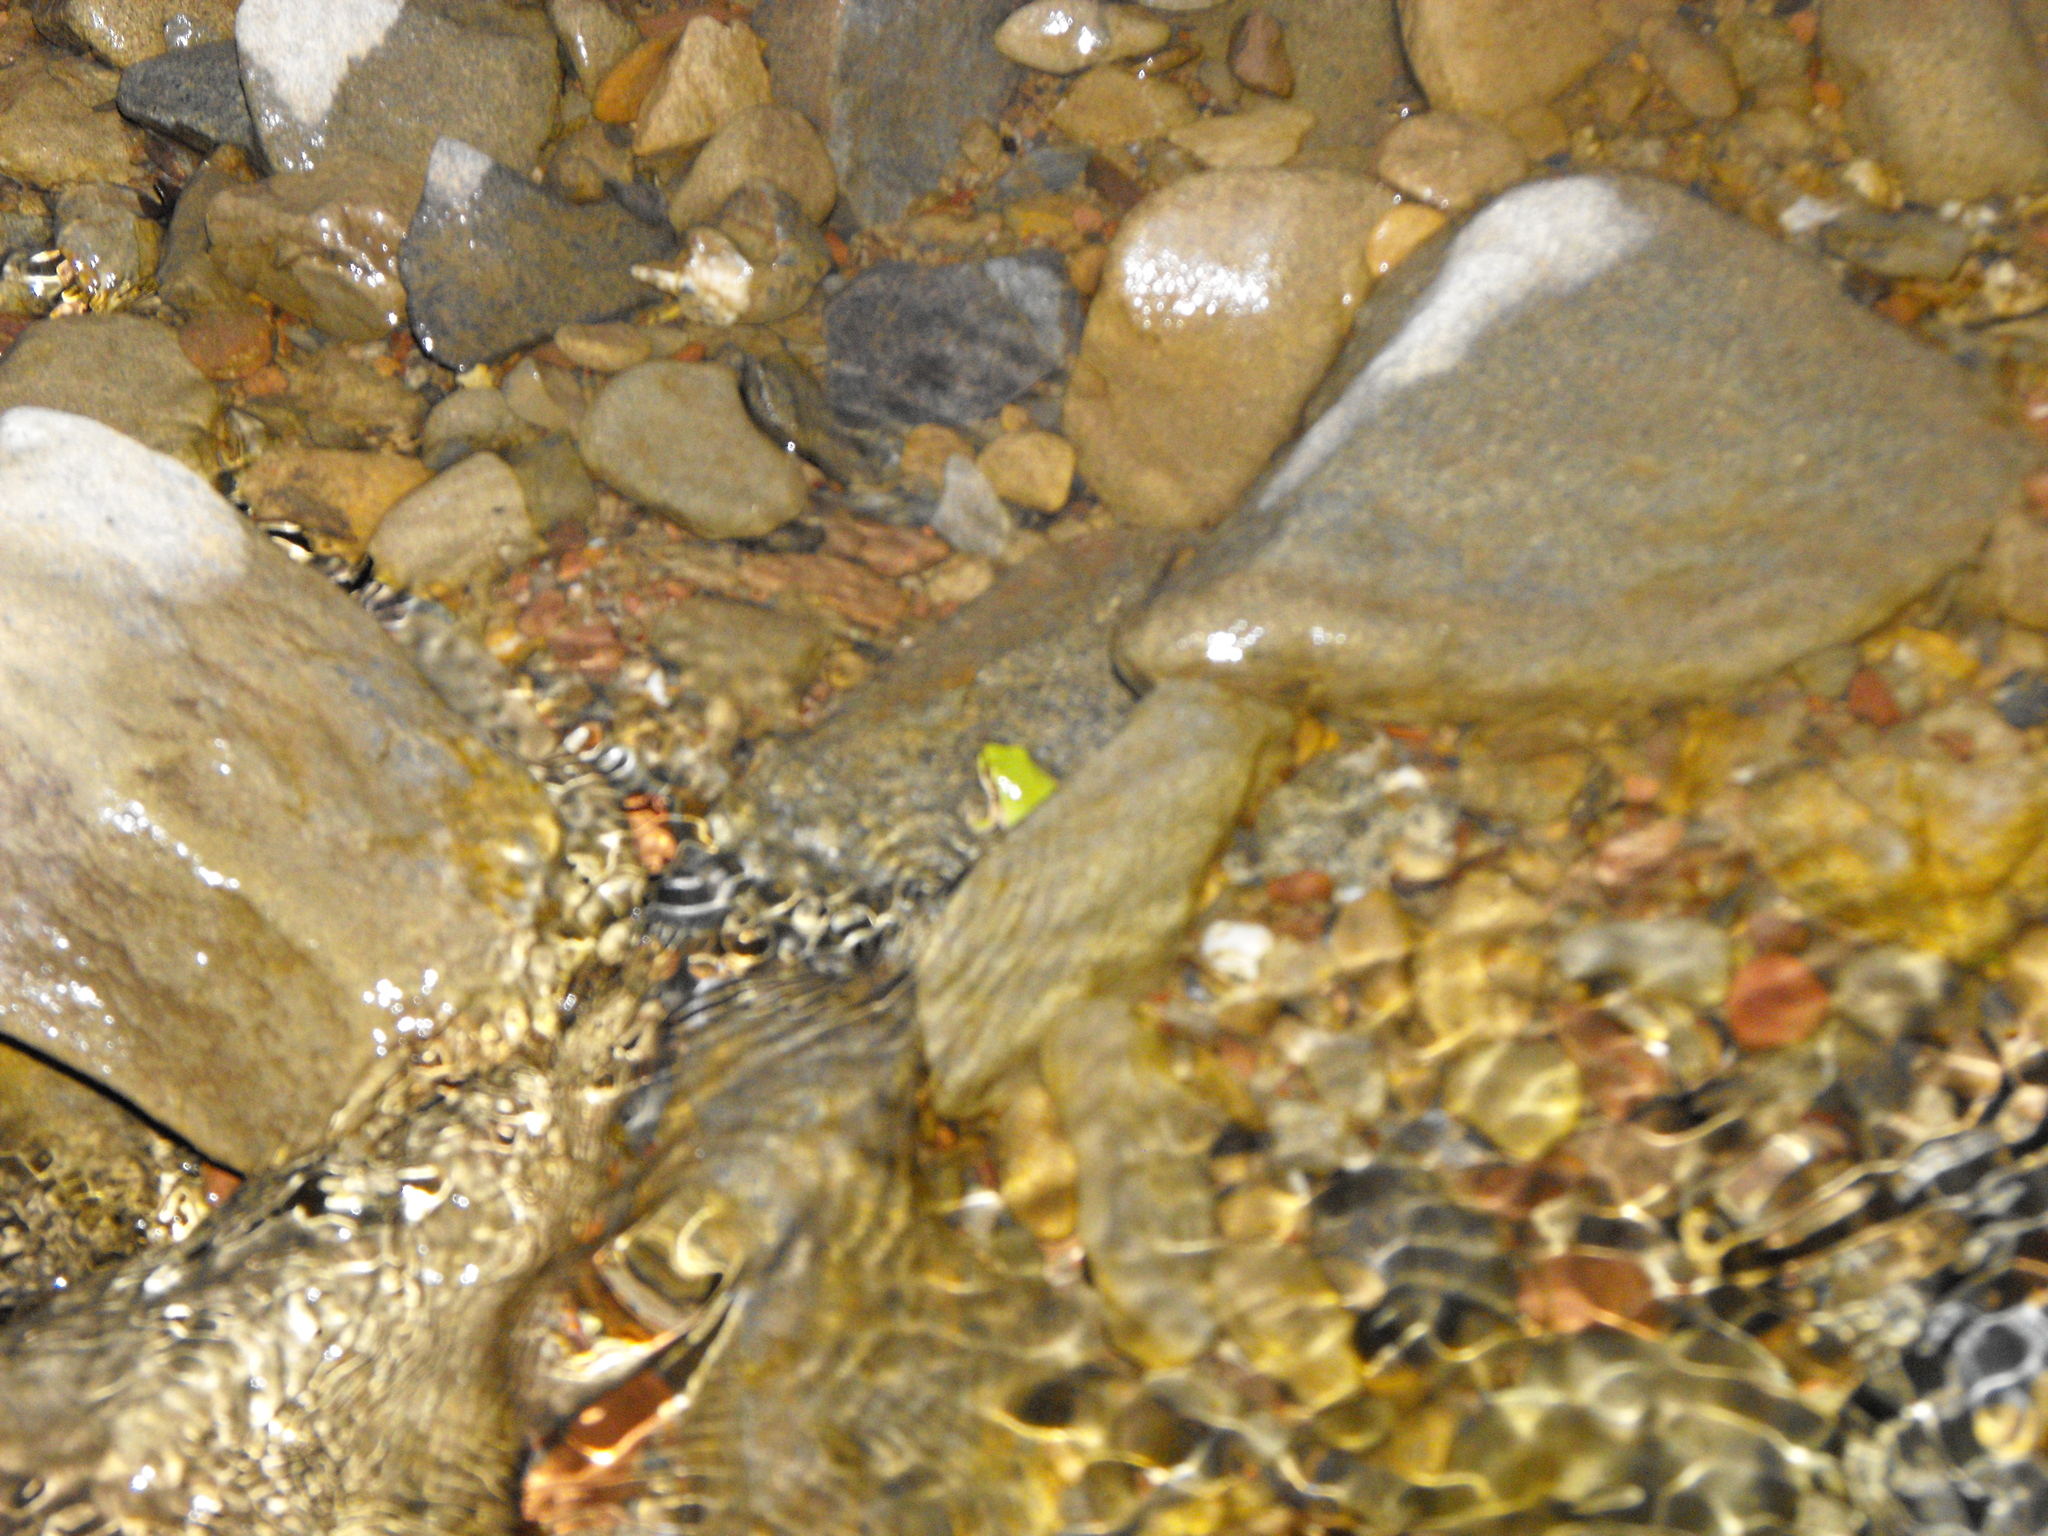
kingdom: Animalia
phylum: Chordata
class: Amphibia
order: Anura
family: Hylidae
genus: Pseudacris
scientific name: Pseudacris regilla
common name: Pacific chorus frog
